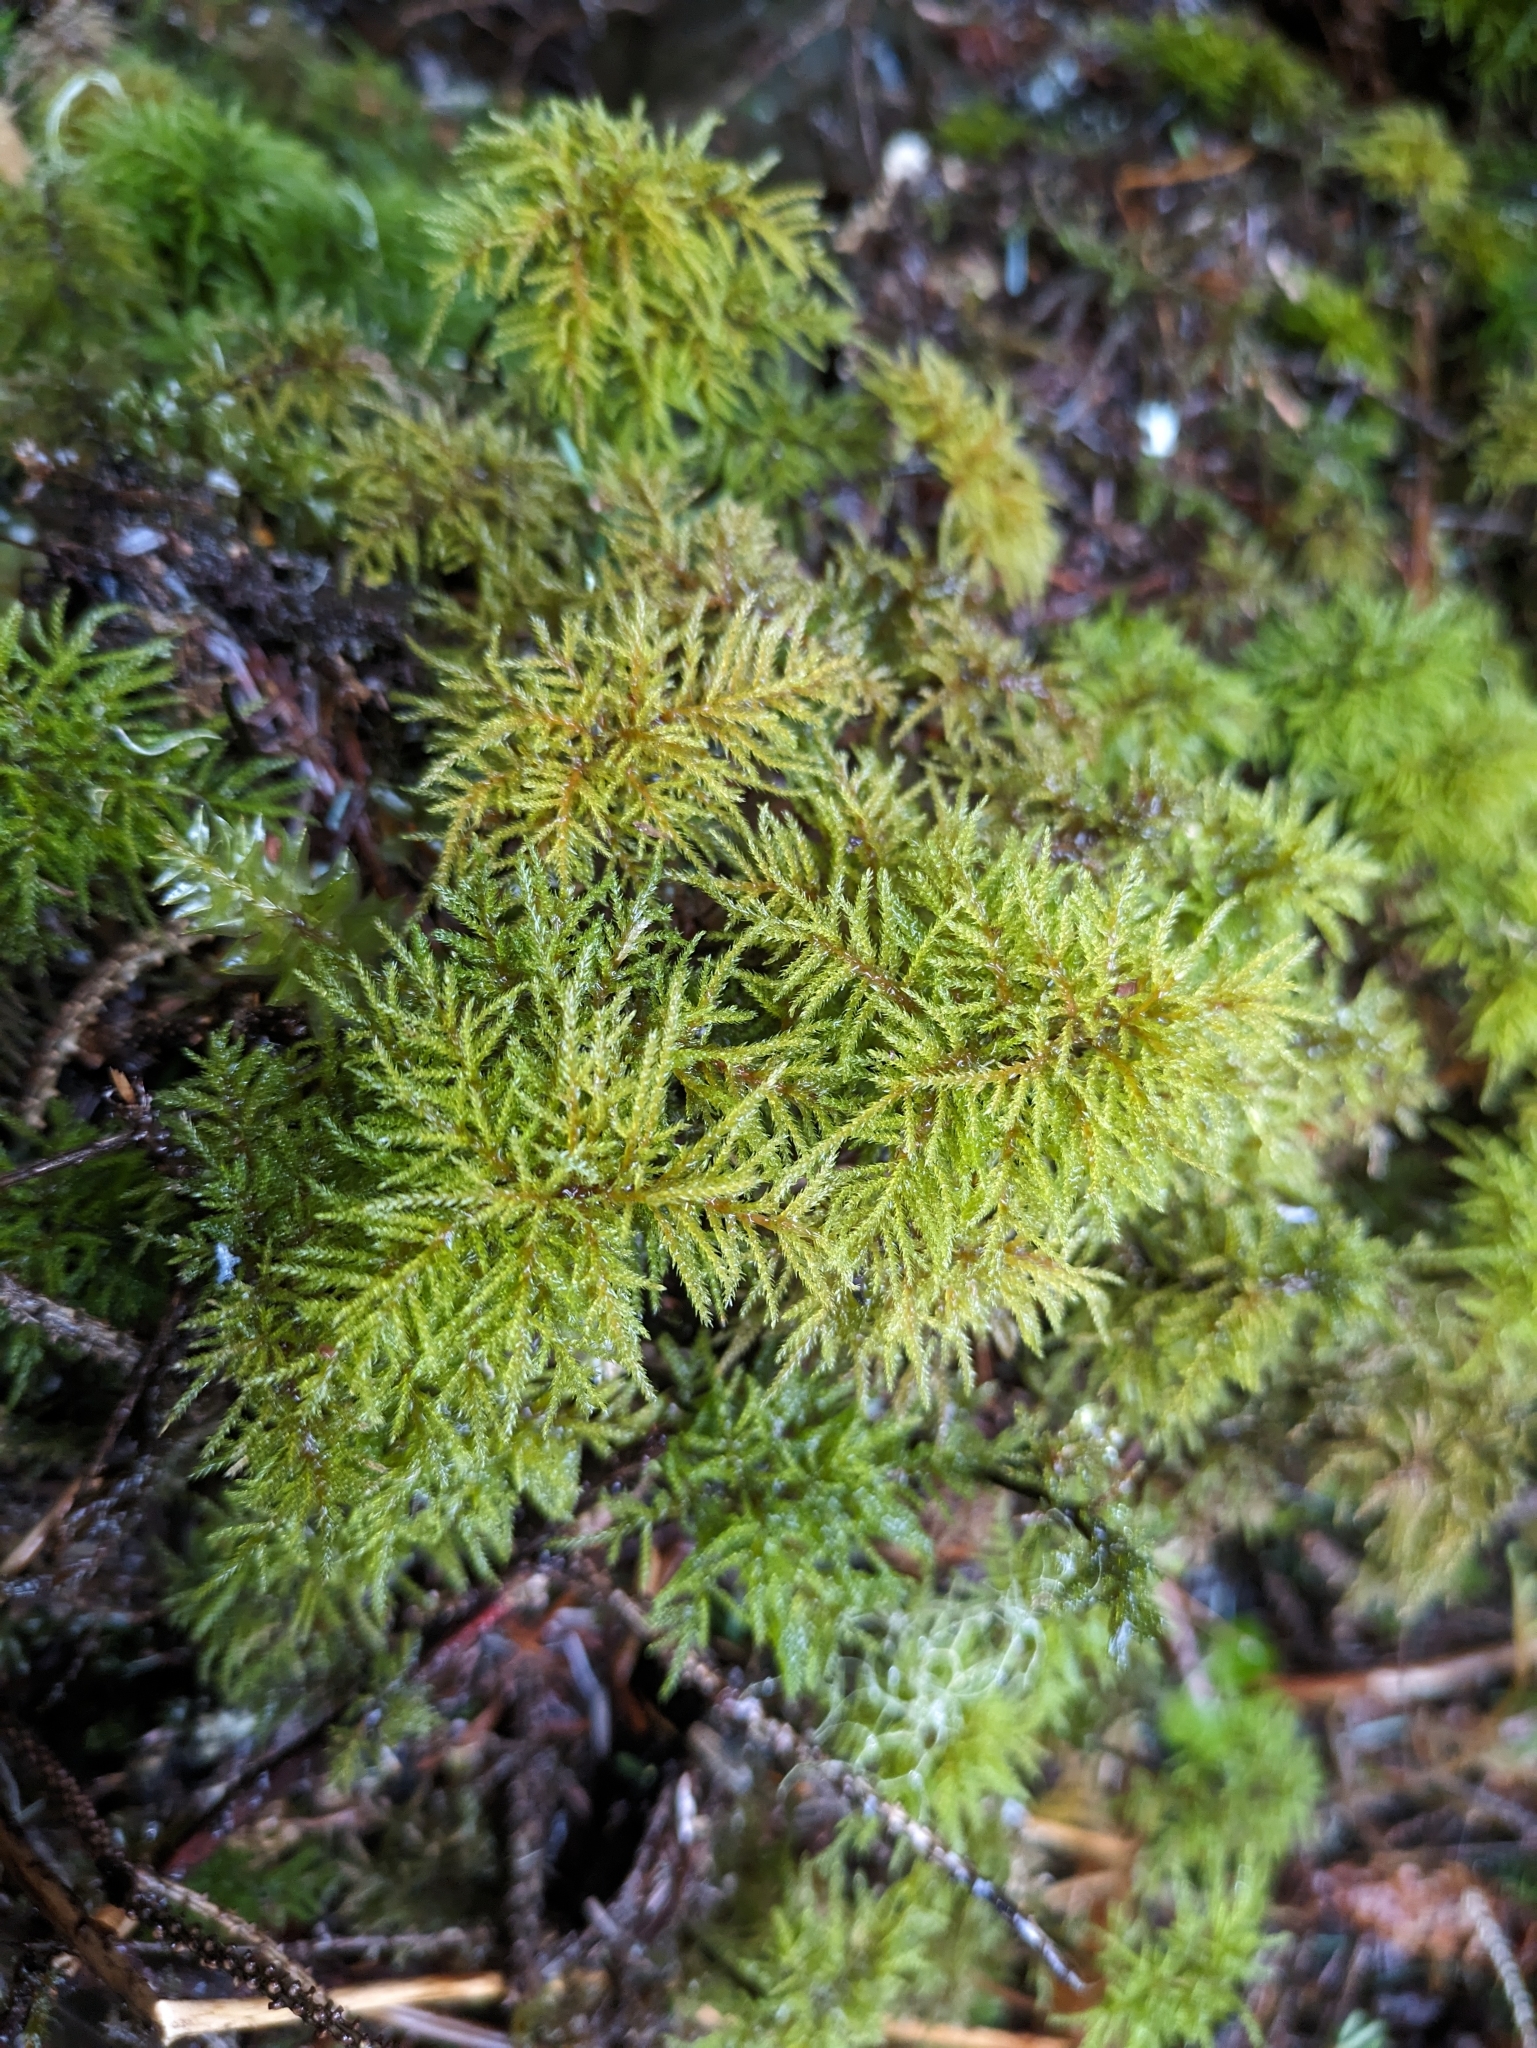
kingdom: Plantae
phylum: Bryophyta
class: Bryopsida
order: Hypnales
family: Climaciaceae
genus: Pleuroziopsis
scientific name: Pleuroziopsis ruthenica
